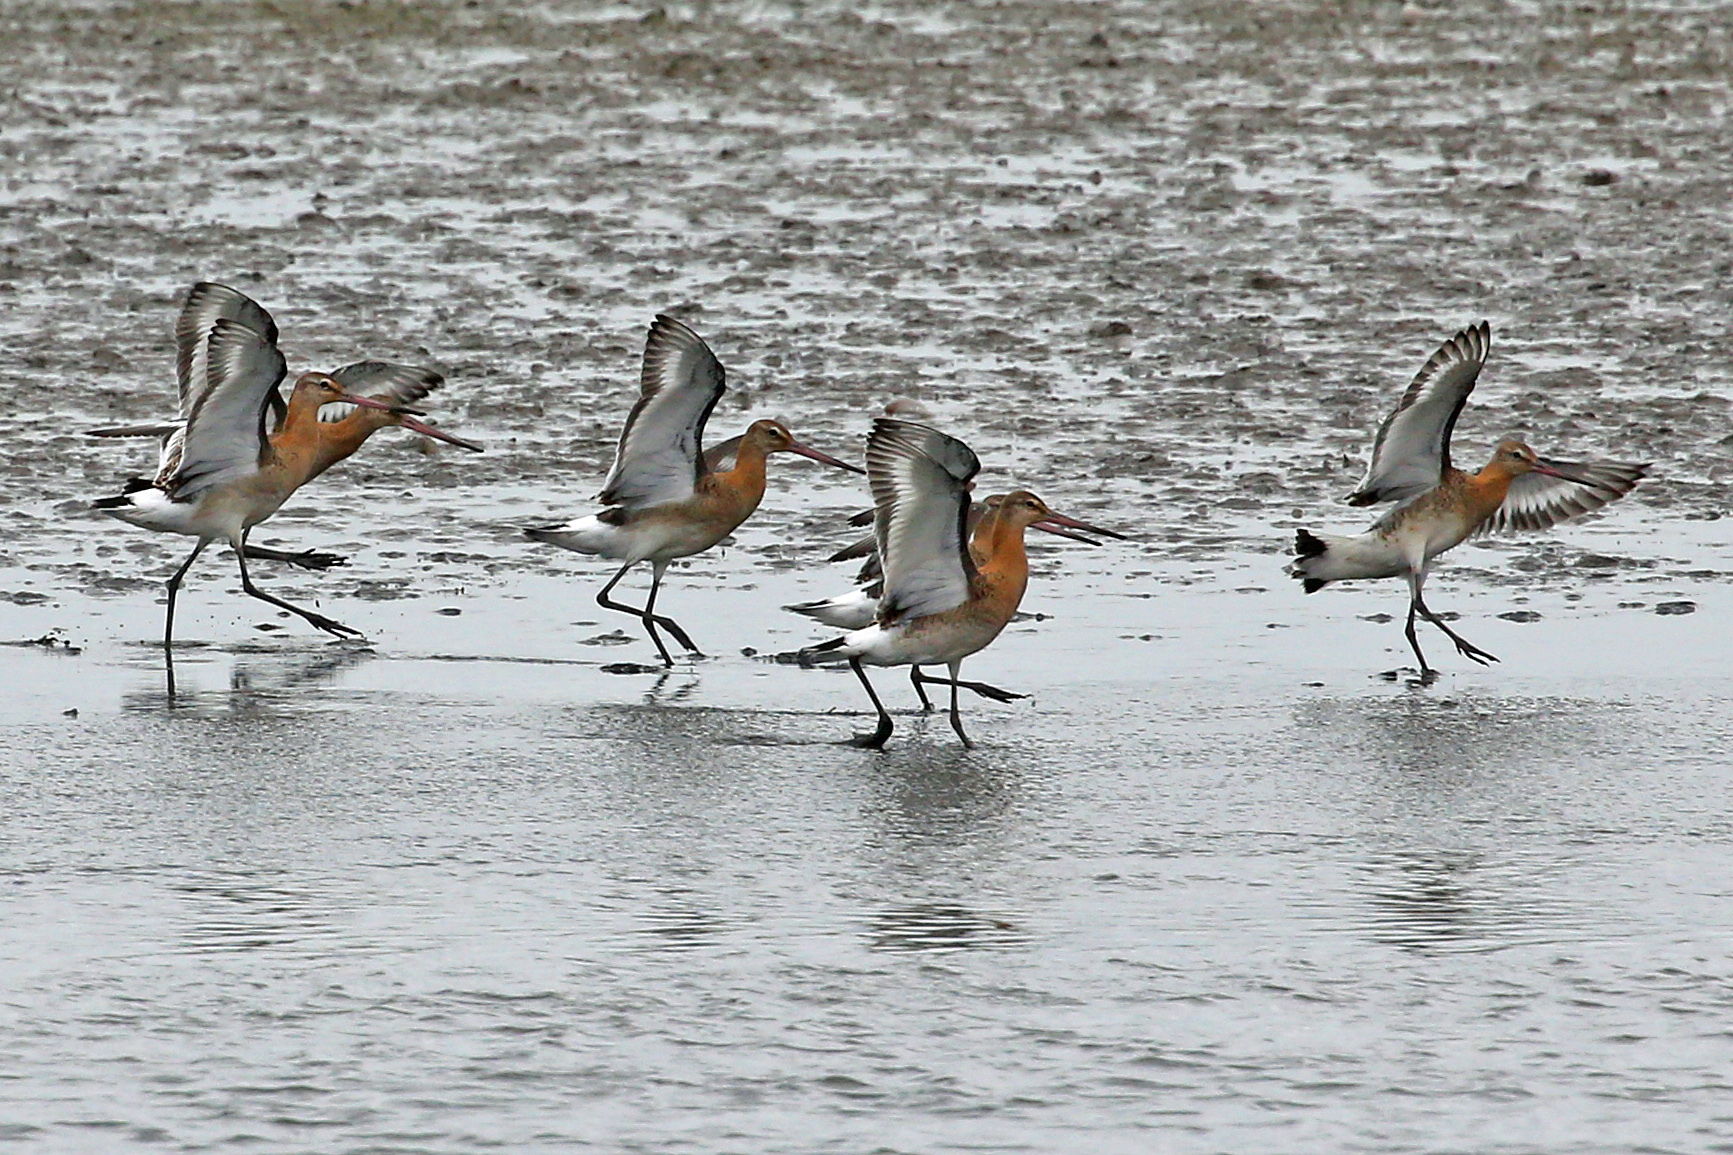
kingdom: Animalia
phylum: Chordata
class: Aves
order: Charadriiformes
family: Scolopacidae
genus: Limosa
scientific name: Limosa limosa
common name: Black-tailed godwit
